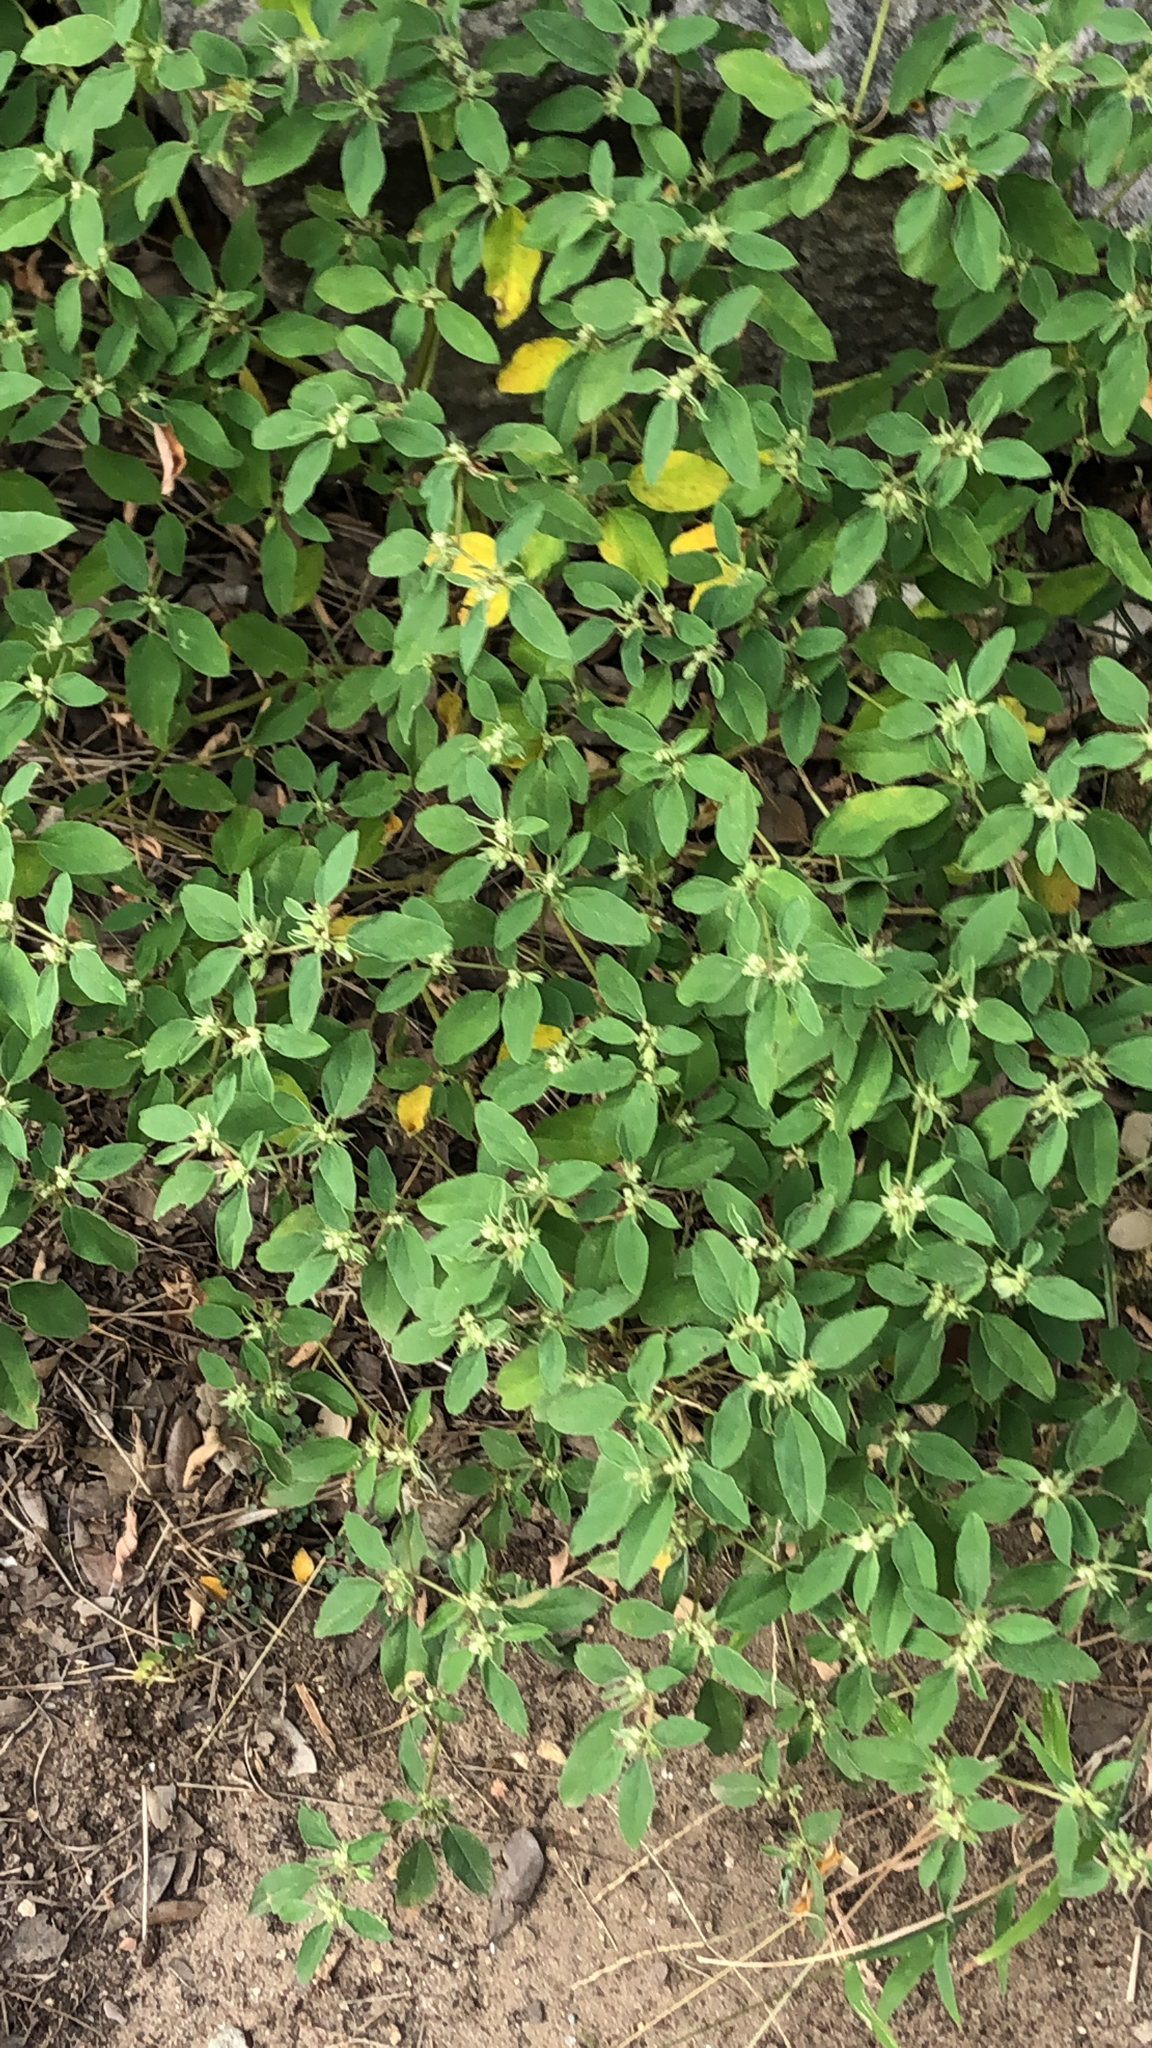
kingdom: Plantae
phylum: Tracheophyta
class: Magnoliopsida
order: Malpighiales
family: Euphorbiaceae
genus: Croton
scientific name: Croton monanthogynus
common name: One-seed croton
